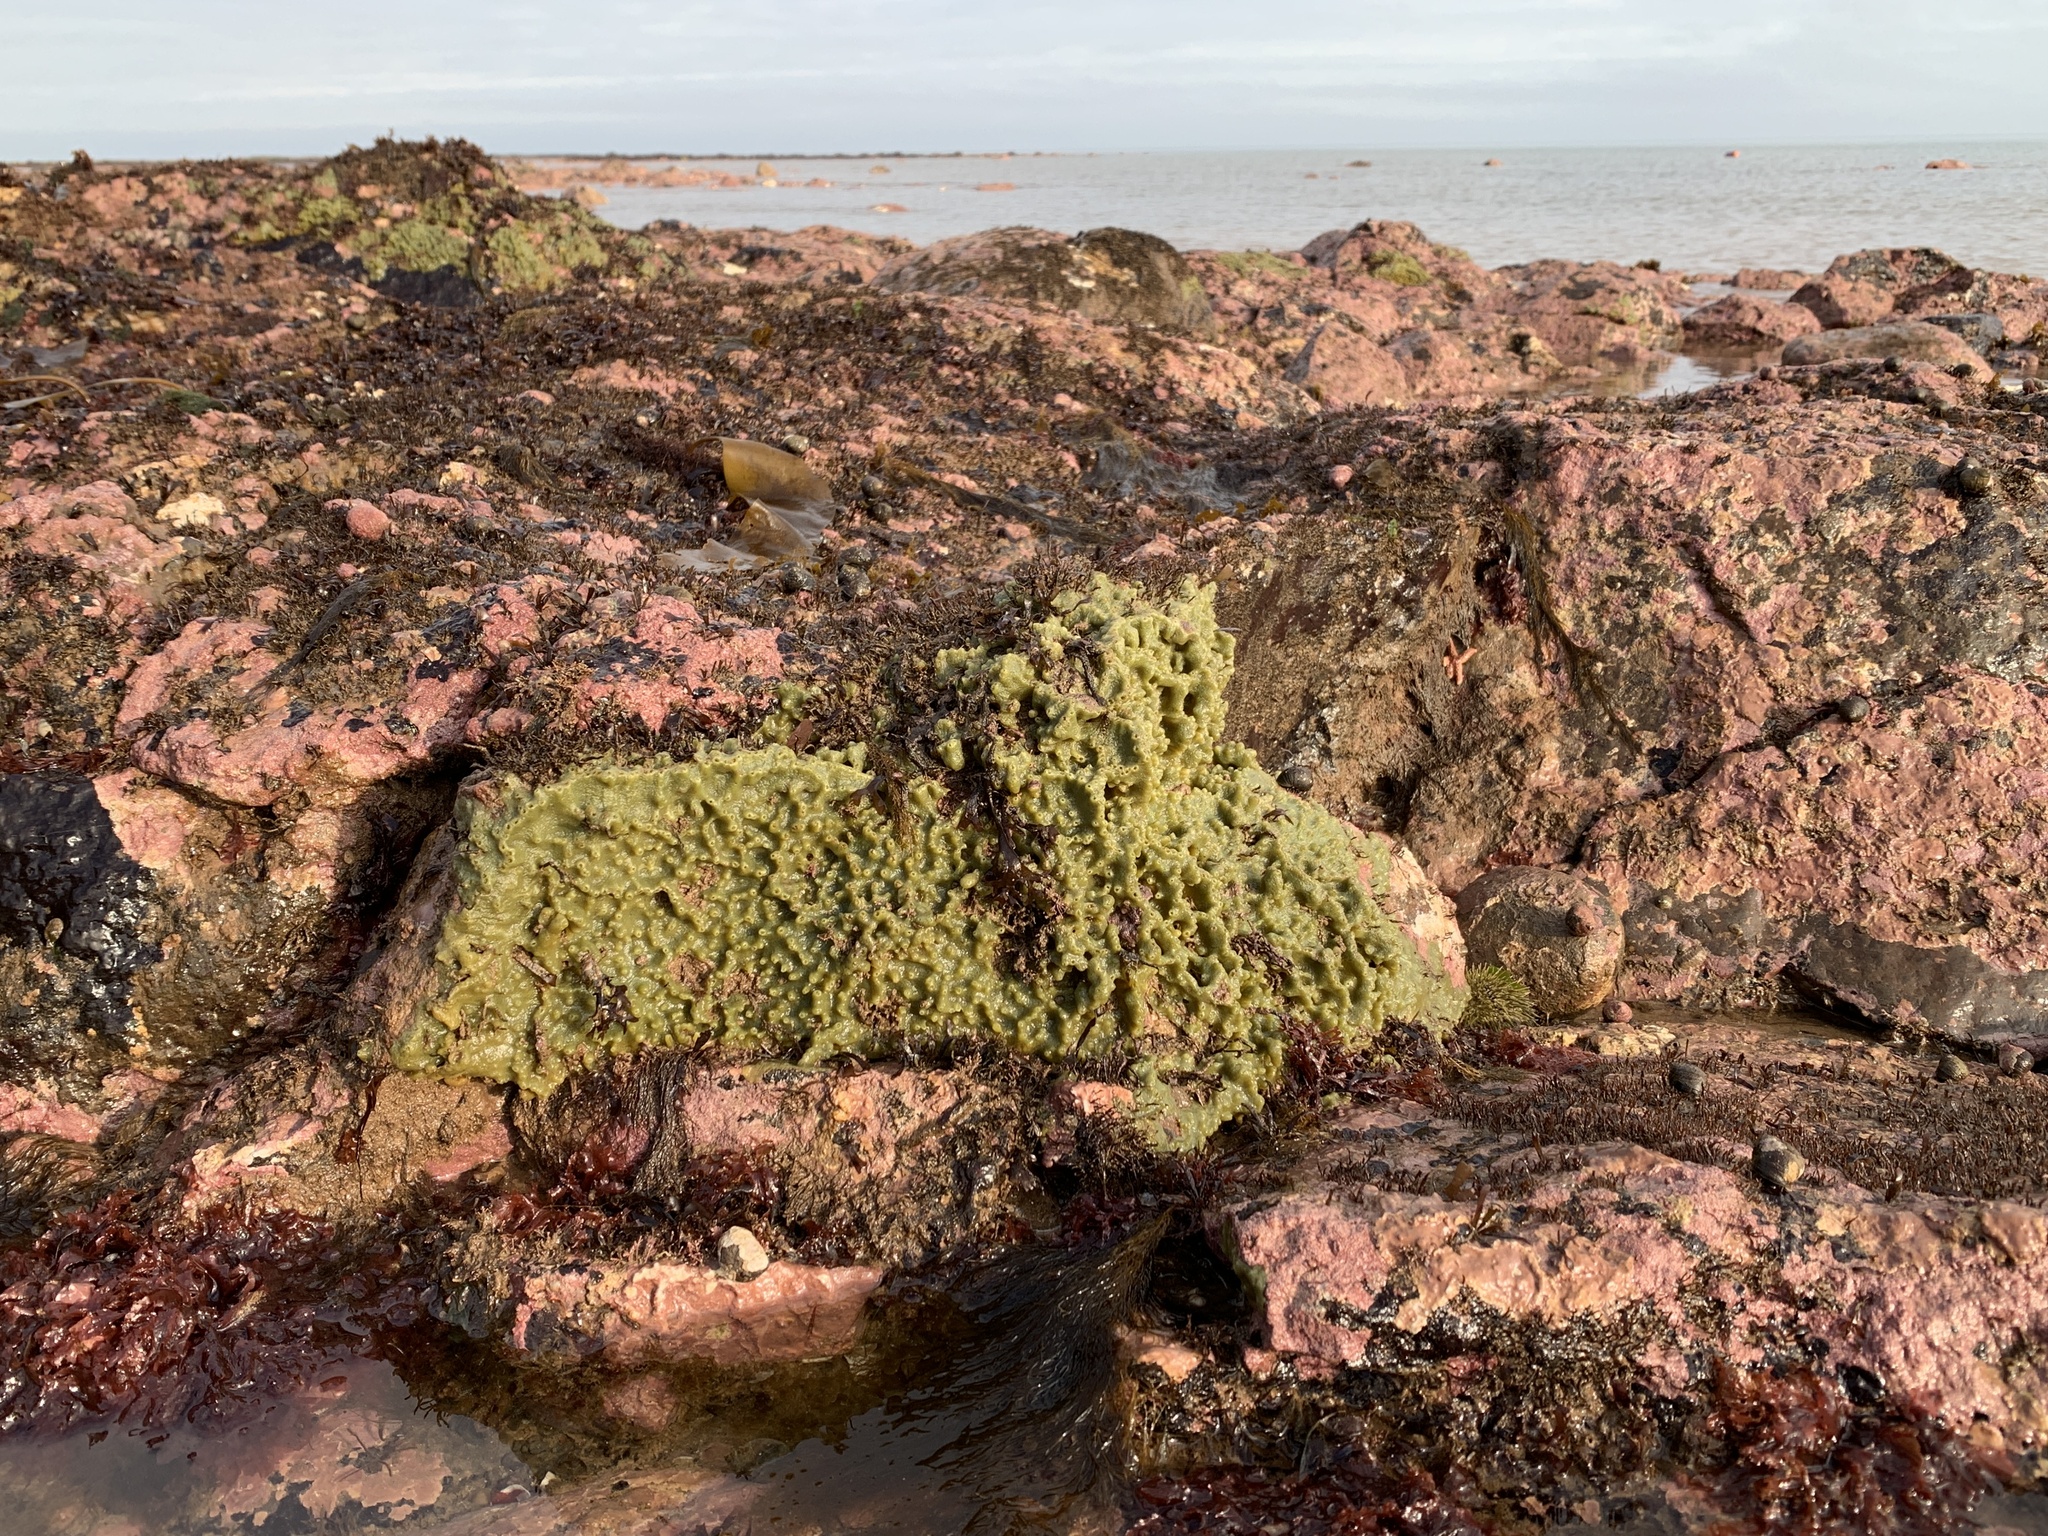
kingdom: Animalia
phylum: Porifera
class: Demospongiae
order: Suberitida
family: Halichondriidae
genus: Halichondria
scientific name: Halichondria panicea
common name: Breadcrumb sponge
